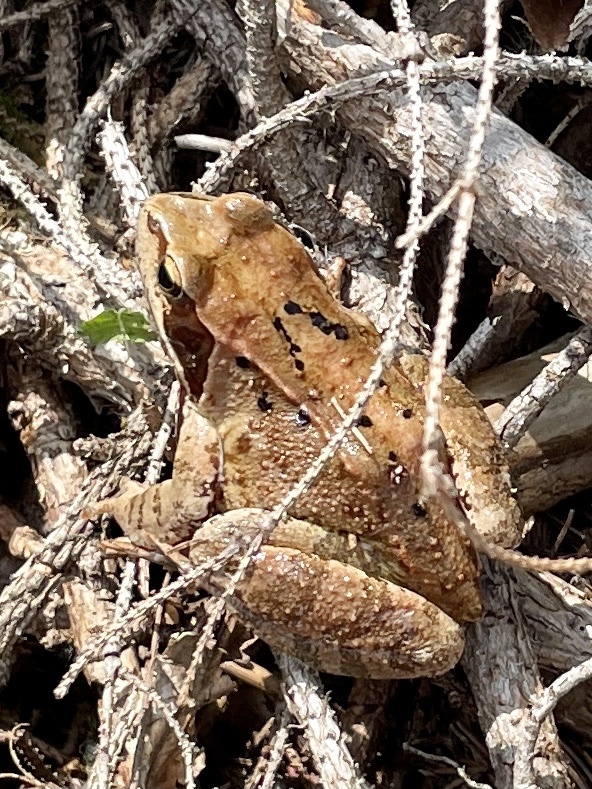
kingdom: Animalia
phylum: Chordata
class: Amphibia
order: Anura
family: Ranidae
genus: Rana
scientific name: Rana temporaria
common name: Common frog
